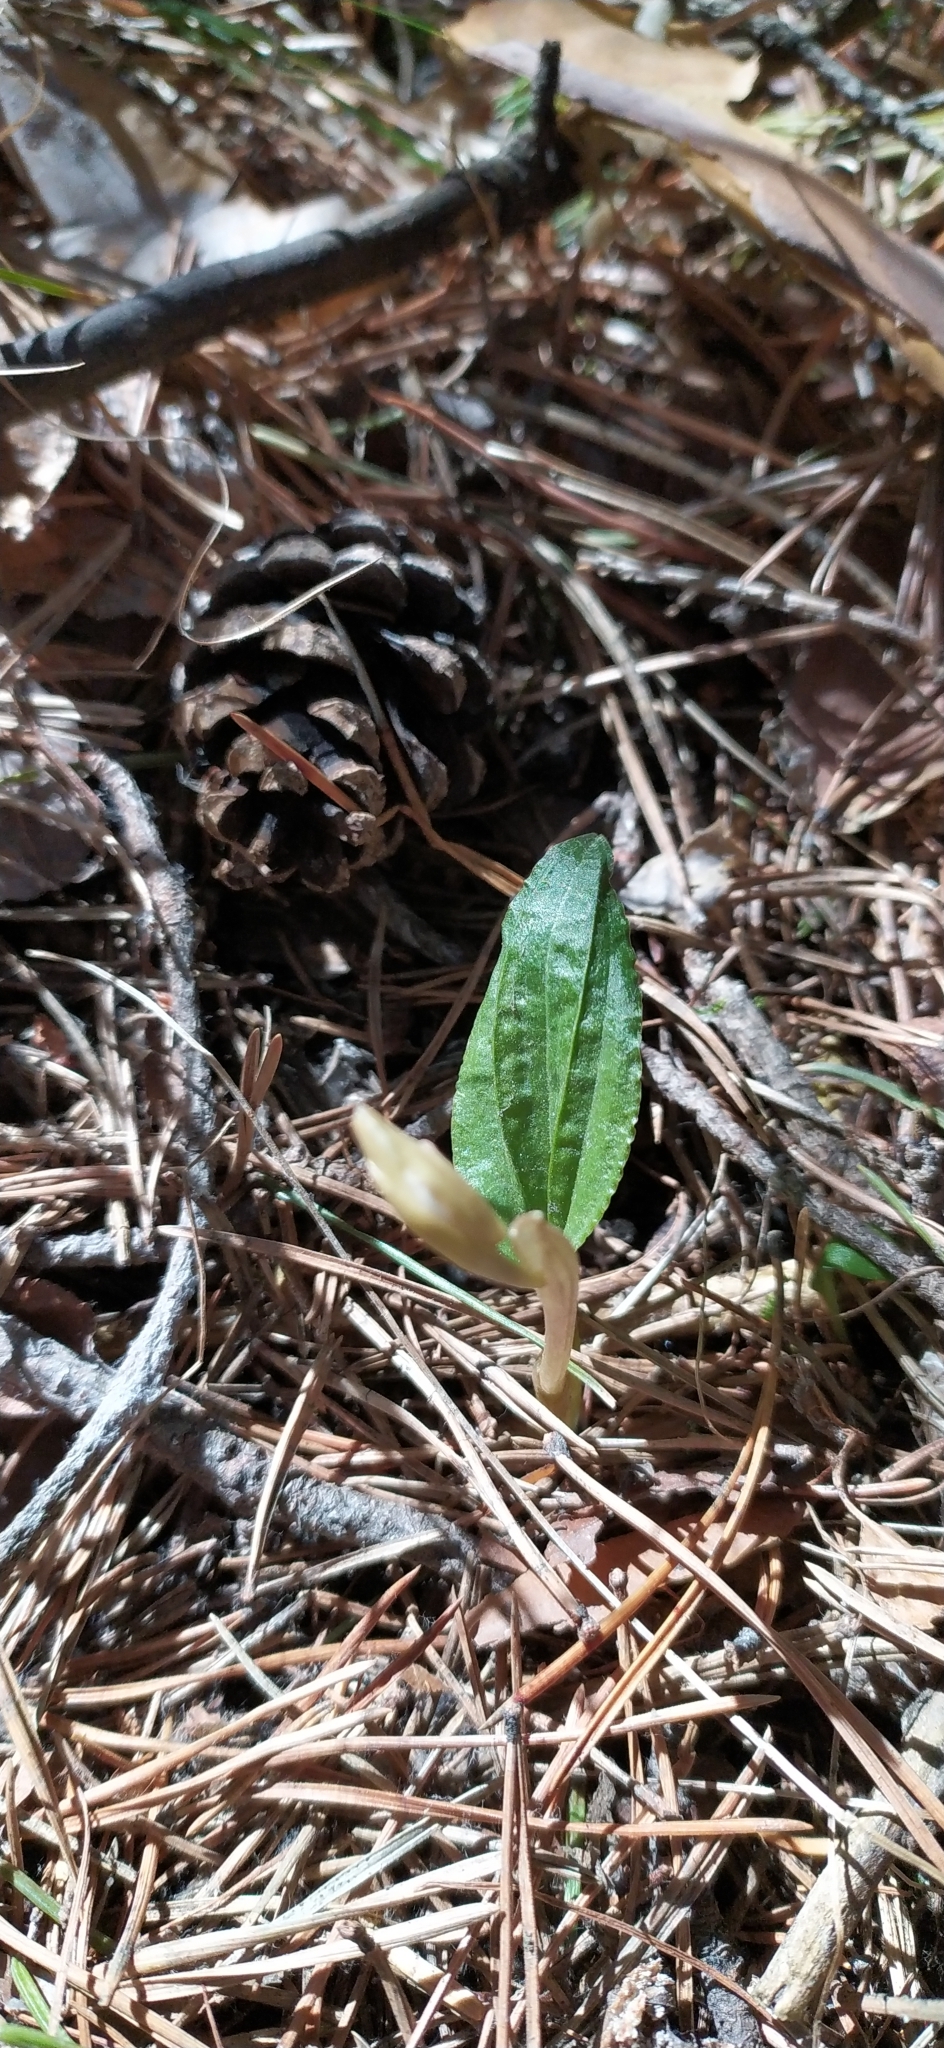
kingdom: Plantae
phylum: Tracheophyta
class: Liliopsida
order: Asparagales
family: Orchidaceae
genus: Calypso
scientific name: Calypso bulbosa
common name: Calypso
